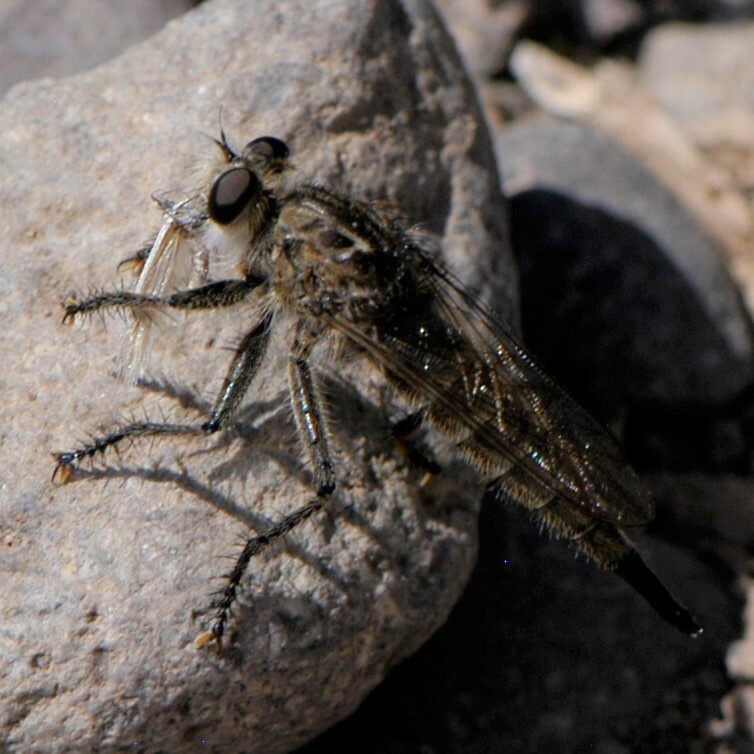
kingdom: Animalia
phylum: Arthropoda
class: Insecta
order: Diptera
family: Asilidae
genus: Efferia
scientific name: Efferia
